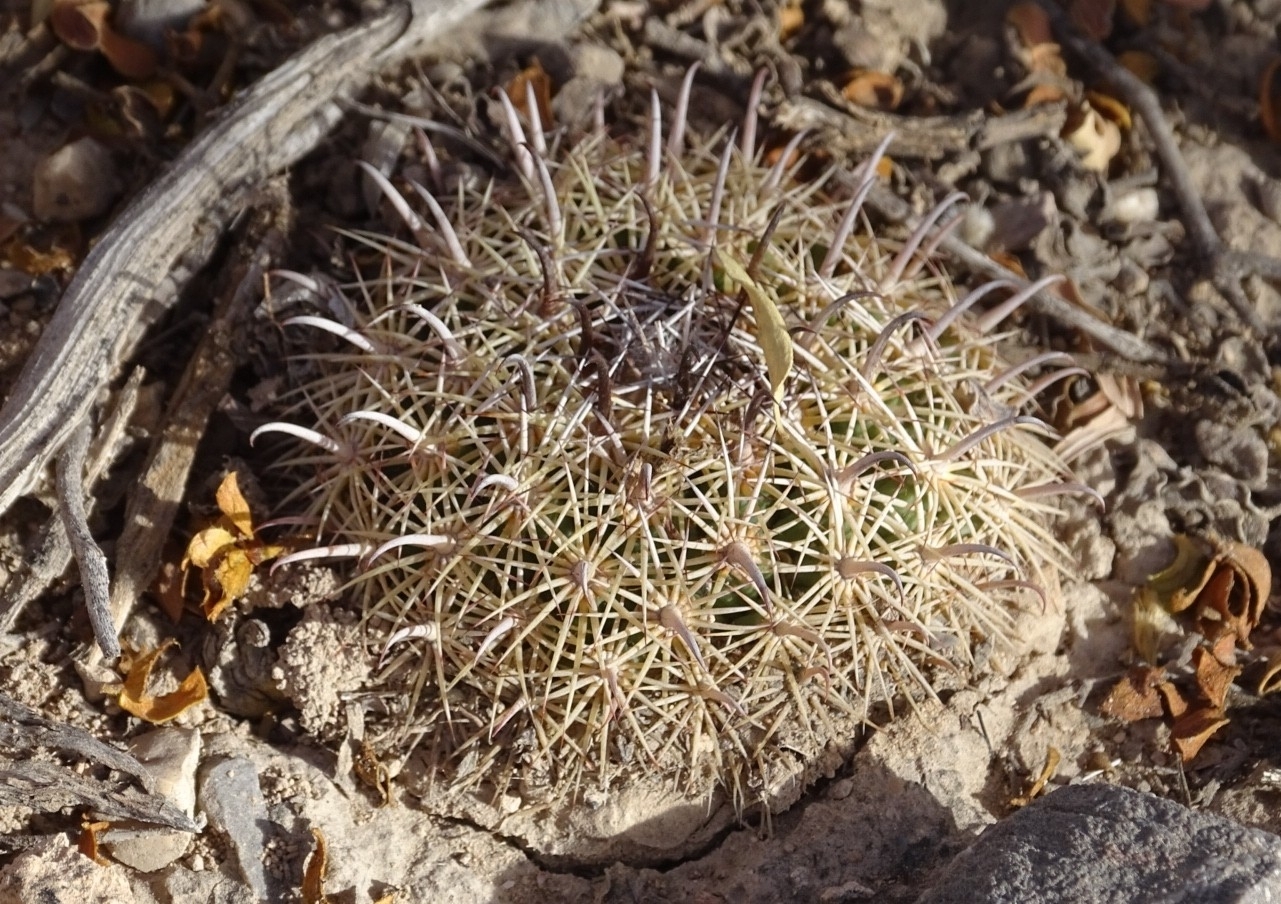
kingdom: Plantae
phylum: Tracheophyta
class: Magnoliopsida
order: Caryophyllales
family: Cactaceae
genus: Coryphantha
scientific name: Coryphantha delicata
